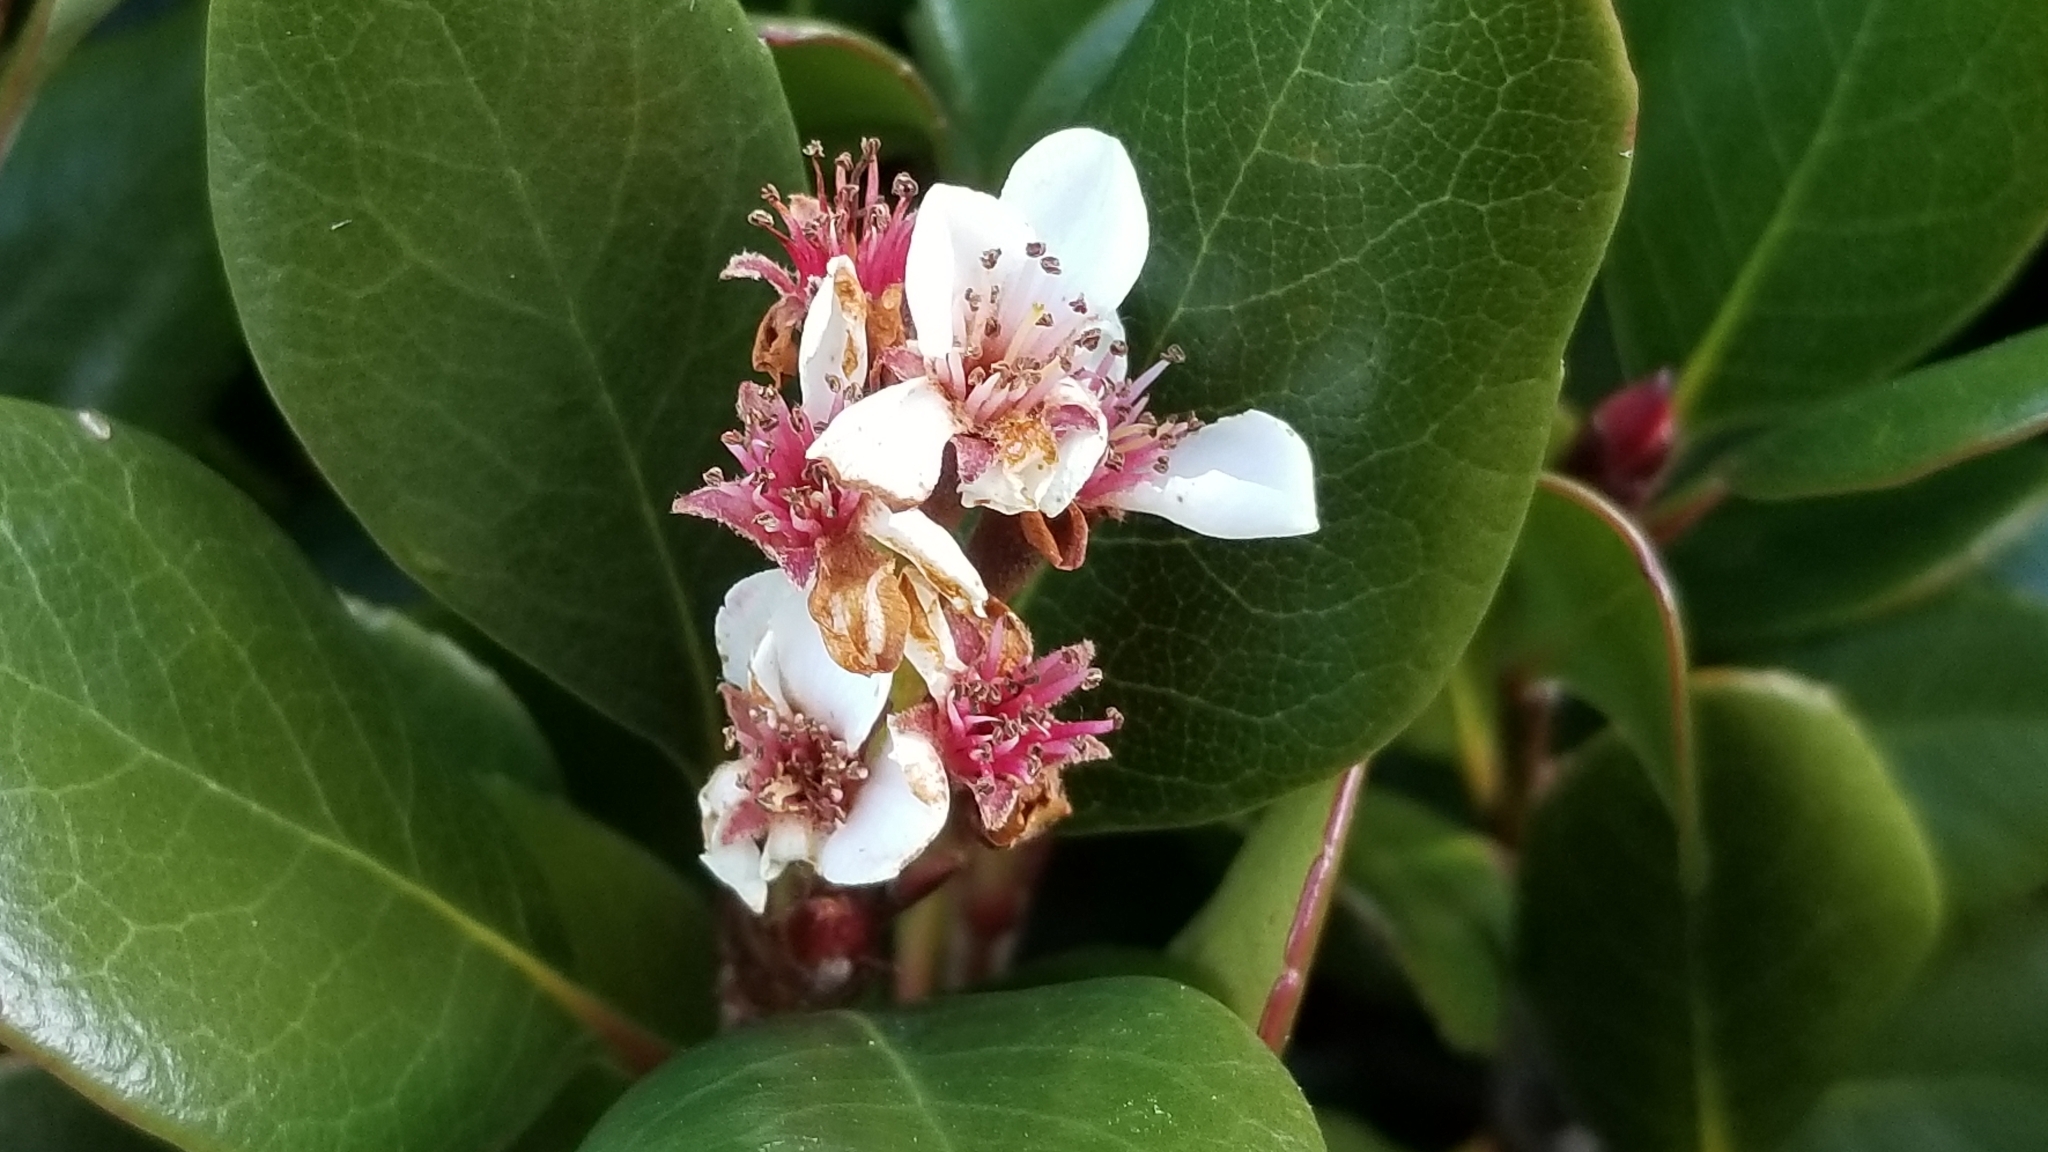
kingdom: Plantae
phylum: Tracheophyta
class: Magnoliopsida
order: Rosales
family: Rosaceae
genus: Rhaphiolepis
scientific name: Rhaphiolepis indica
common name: India-hawthorn
